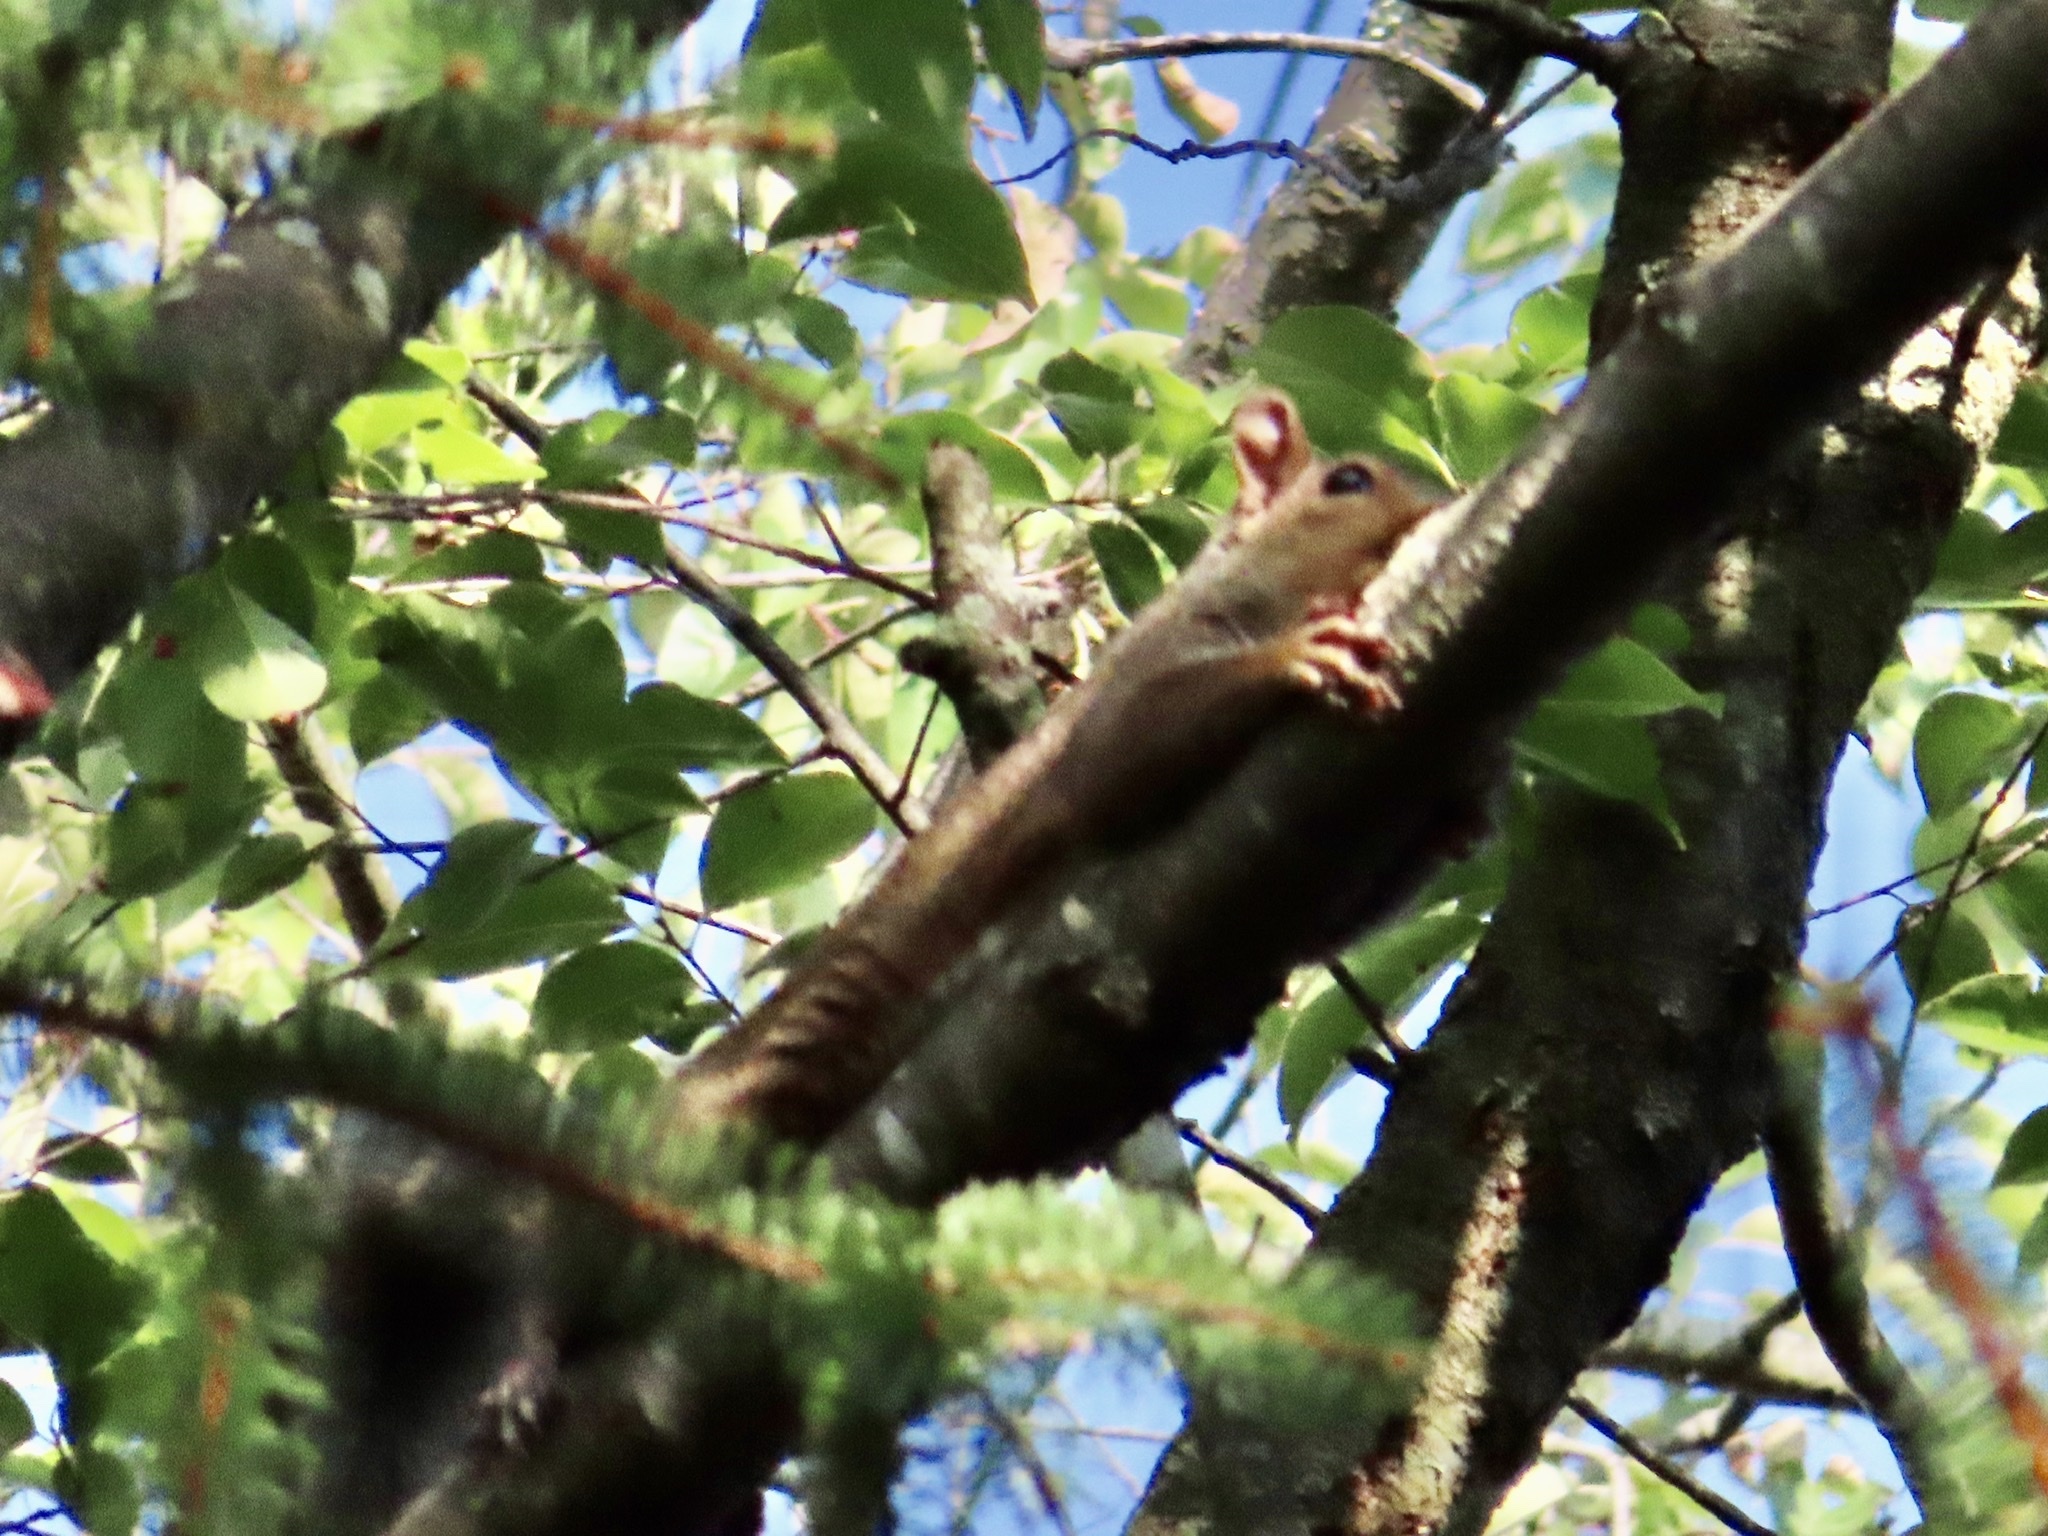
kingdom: Animalia
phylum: Chordata
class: Mammalia
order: Rodentia
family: Sciuridae
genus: Sciurus
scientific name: Sciurus carolinensis
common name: Eastern gray squirrel
